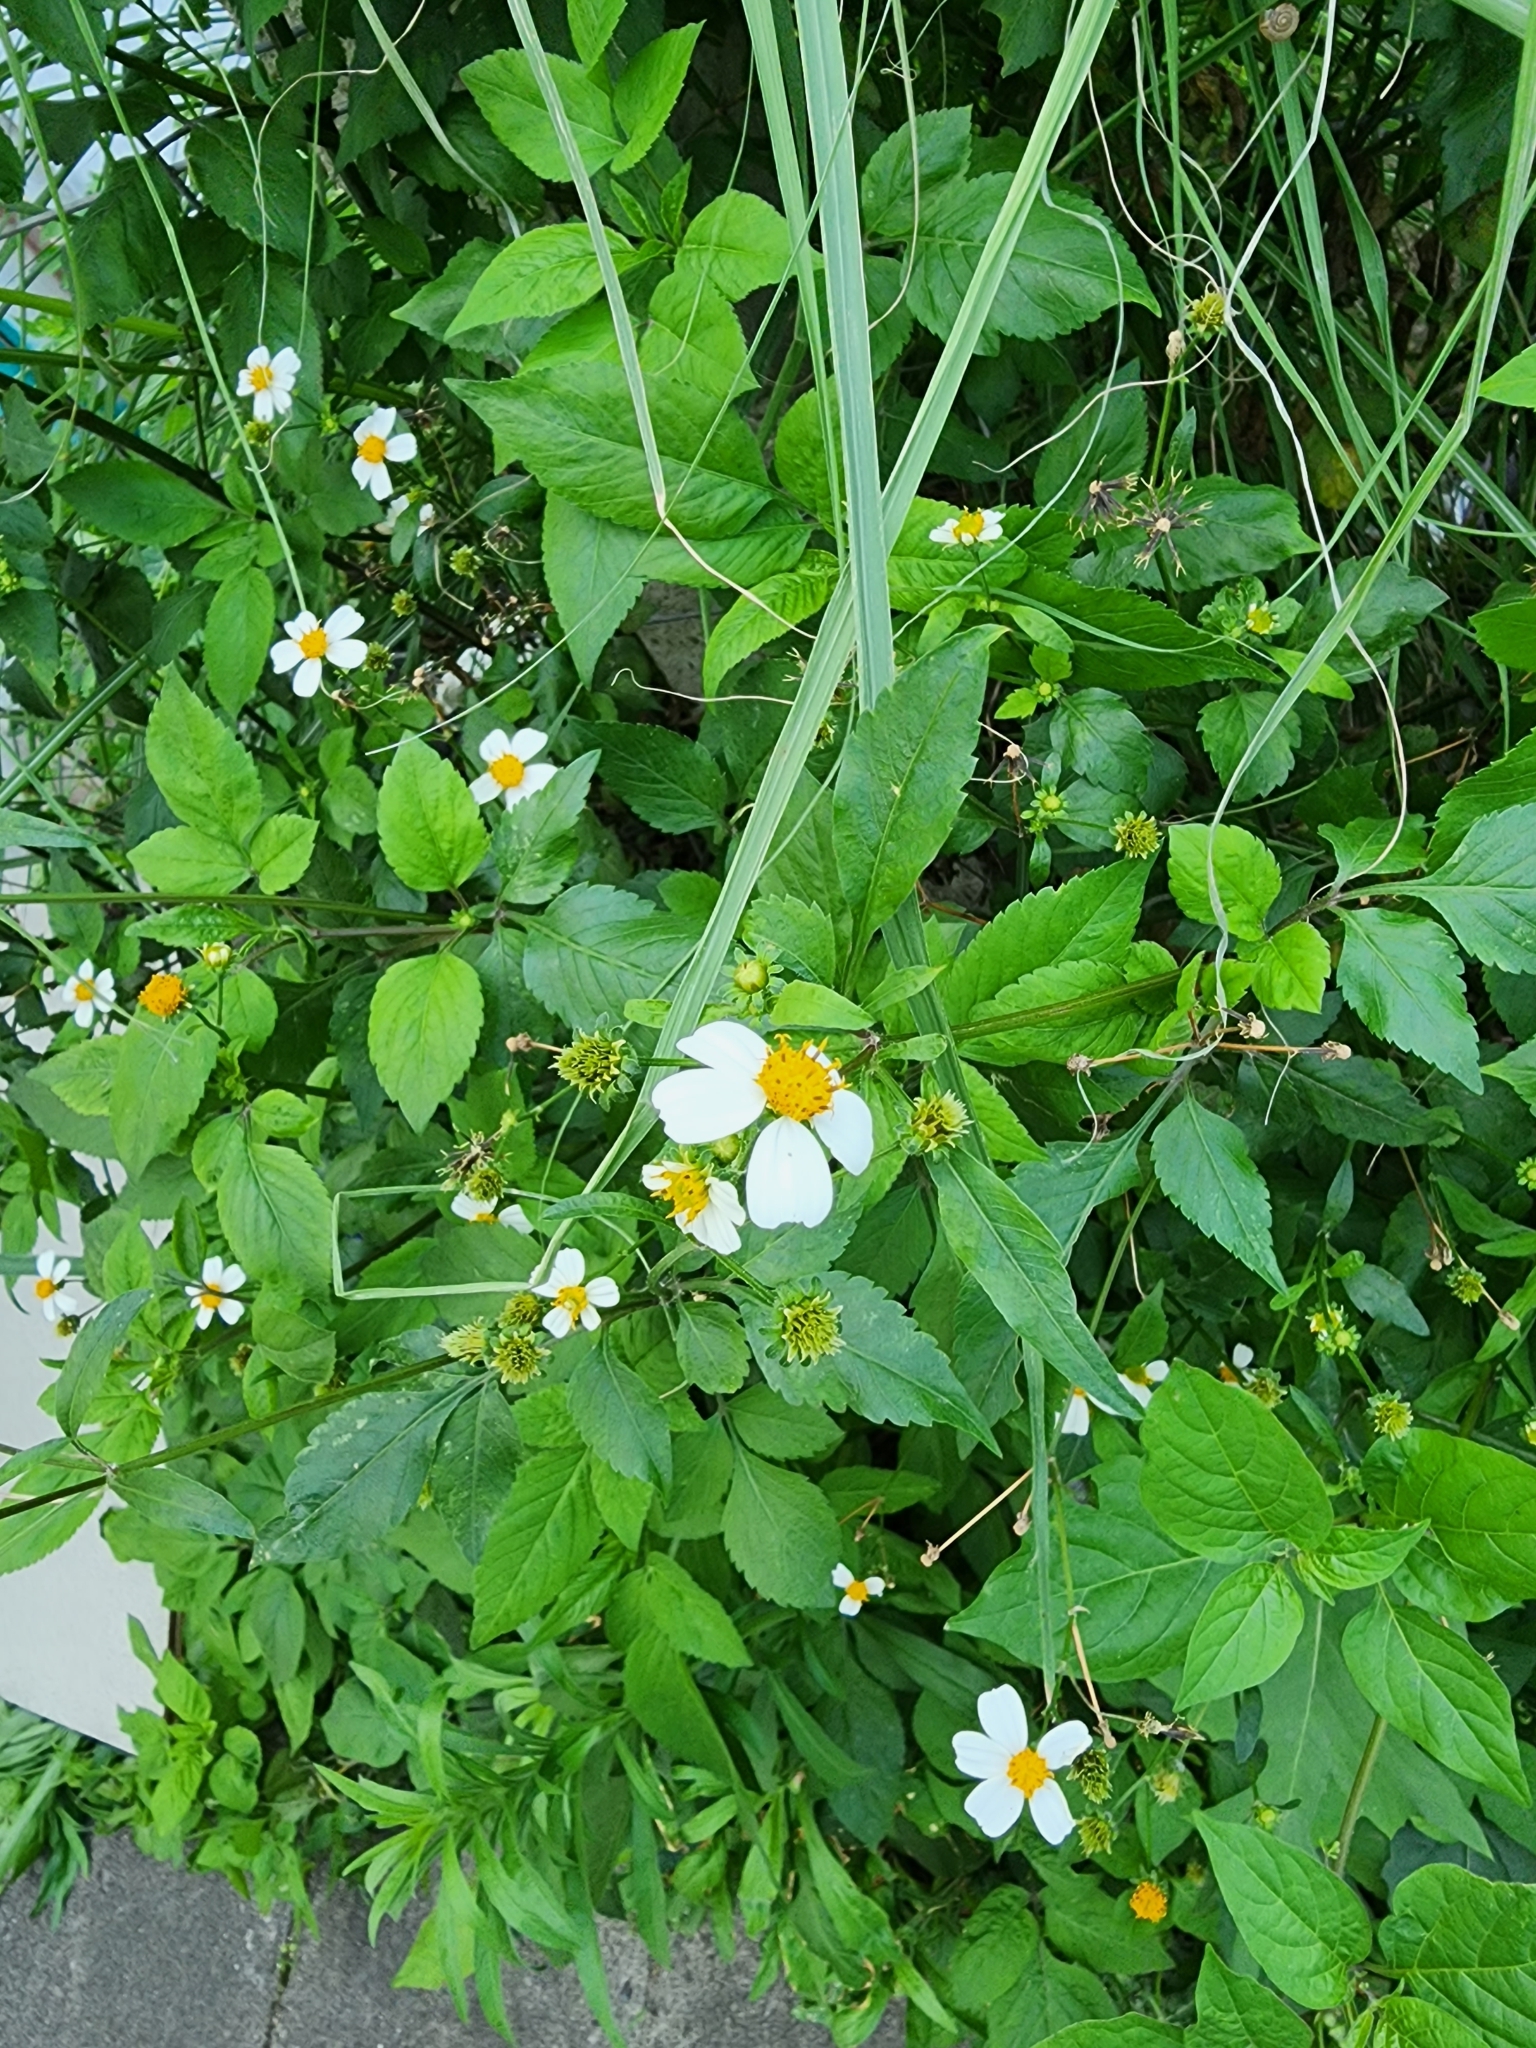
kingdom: Plantae
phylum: Tracheophyta
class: Magnoliopsida
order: Asterales
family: Asteraceae
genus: Bidens
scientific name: Bidens alba
